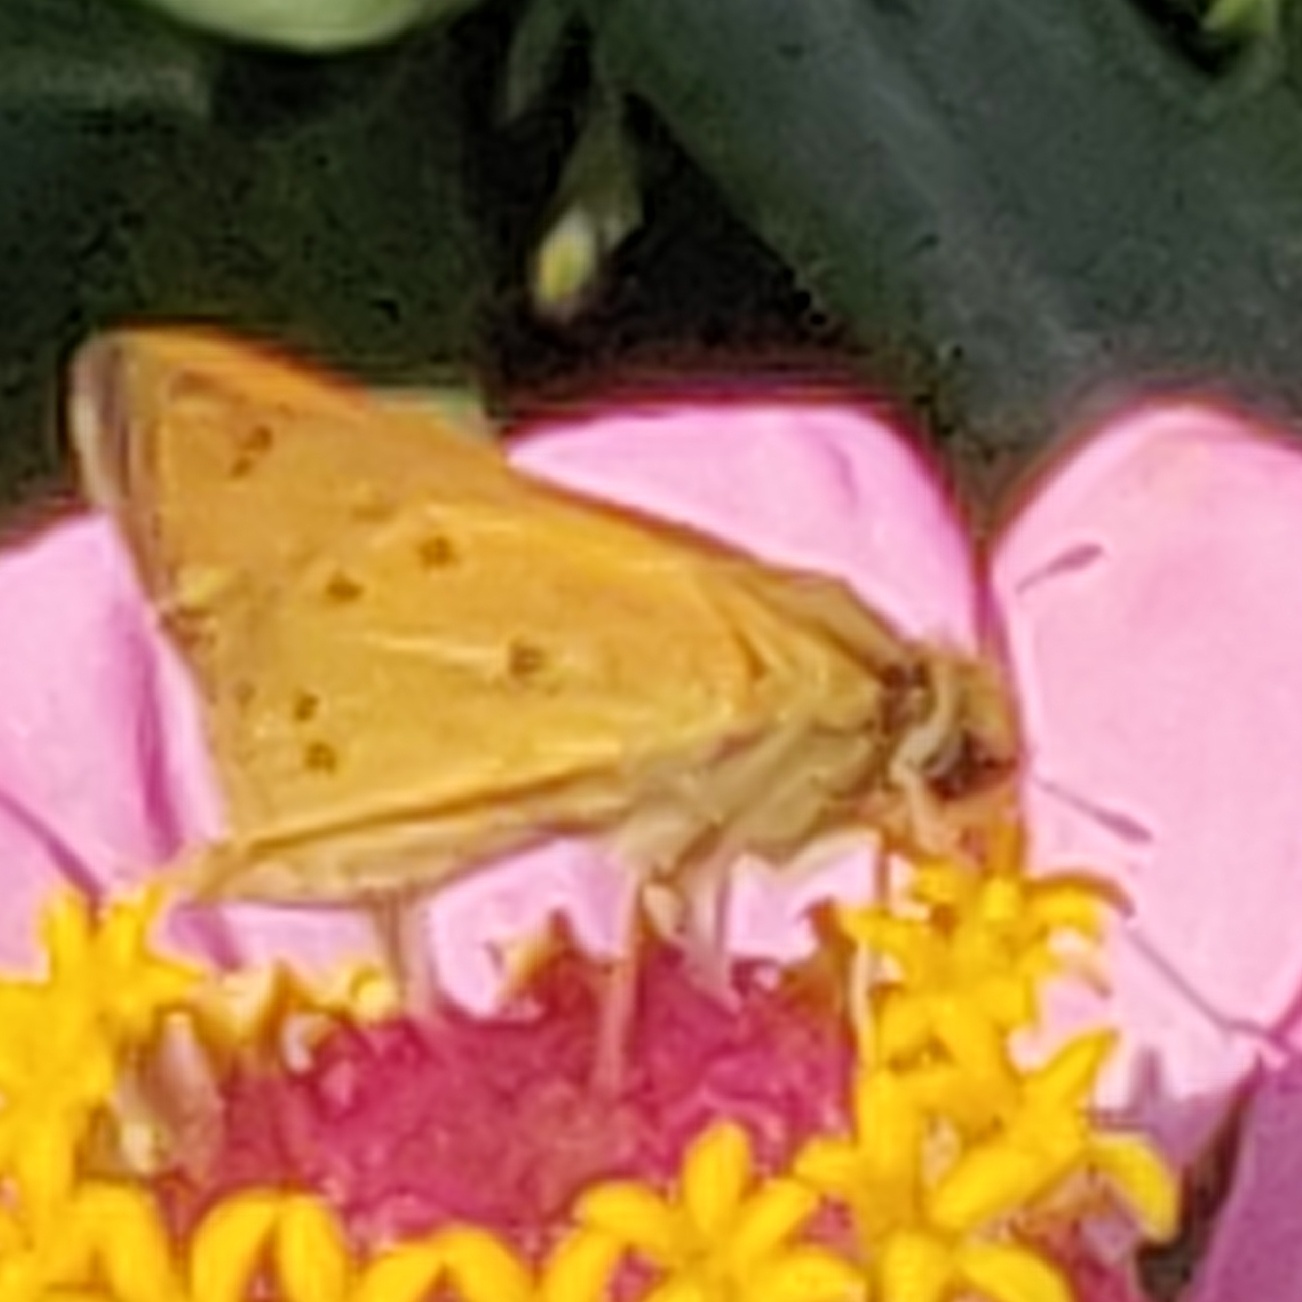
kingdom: Animalia
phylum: Arthropoda
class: Insecta
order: Lepidoptera
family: Hesperiidae
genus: Hylephila
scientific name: Hylephila phyleus
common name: Fiery skipper
